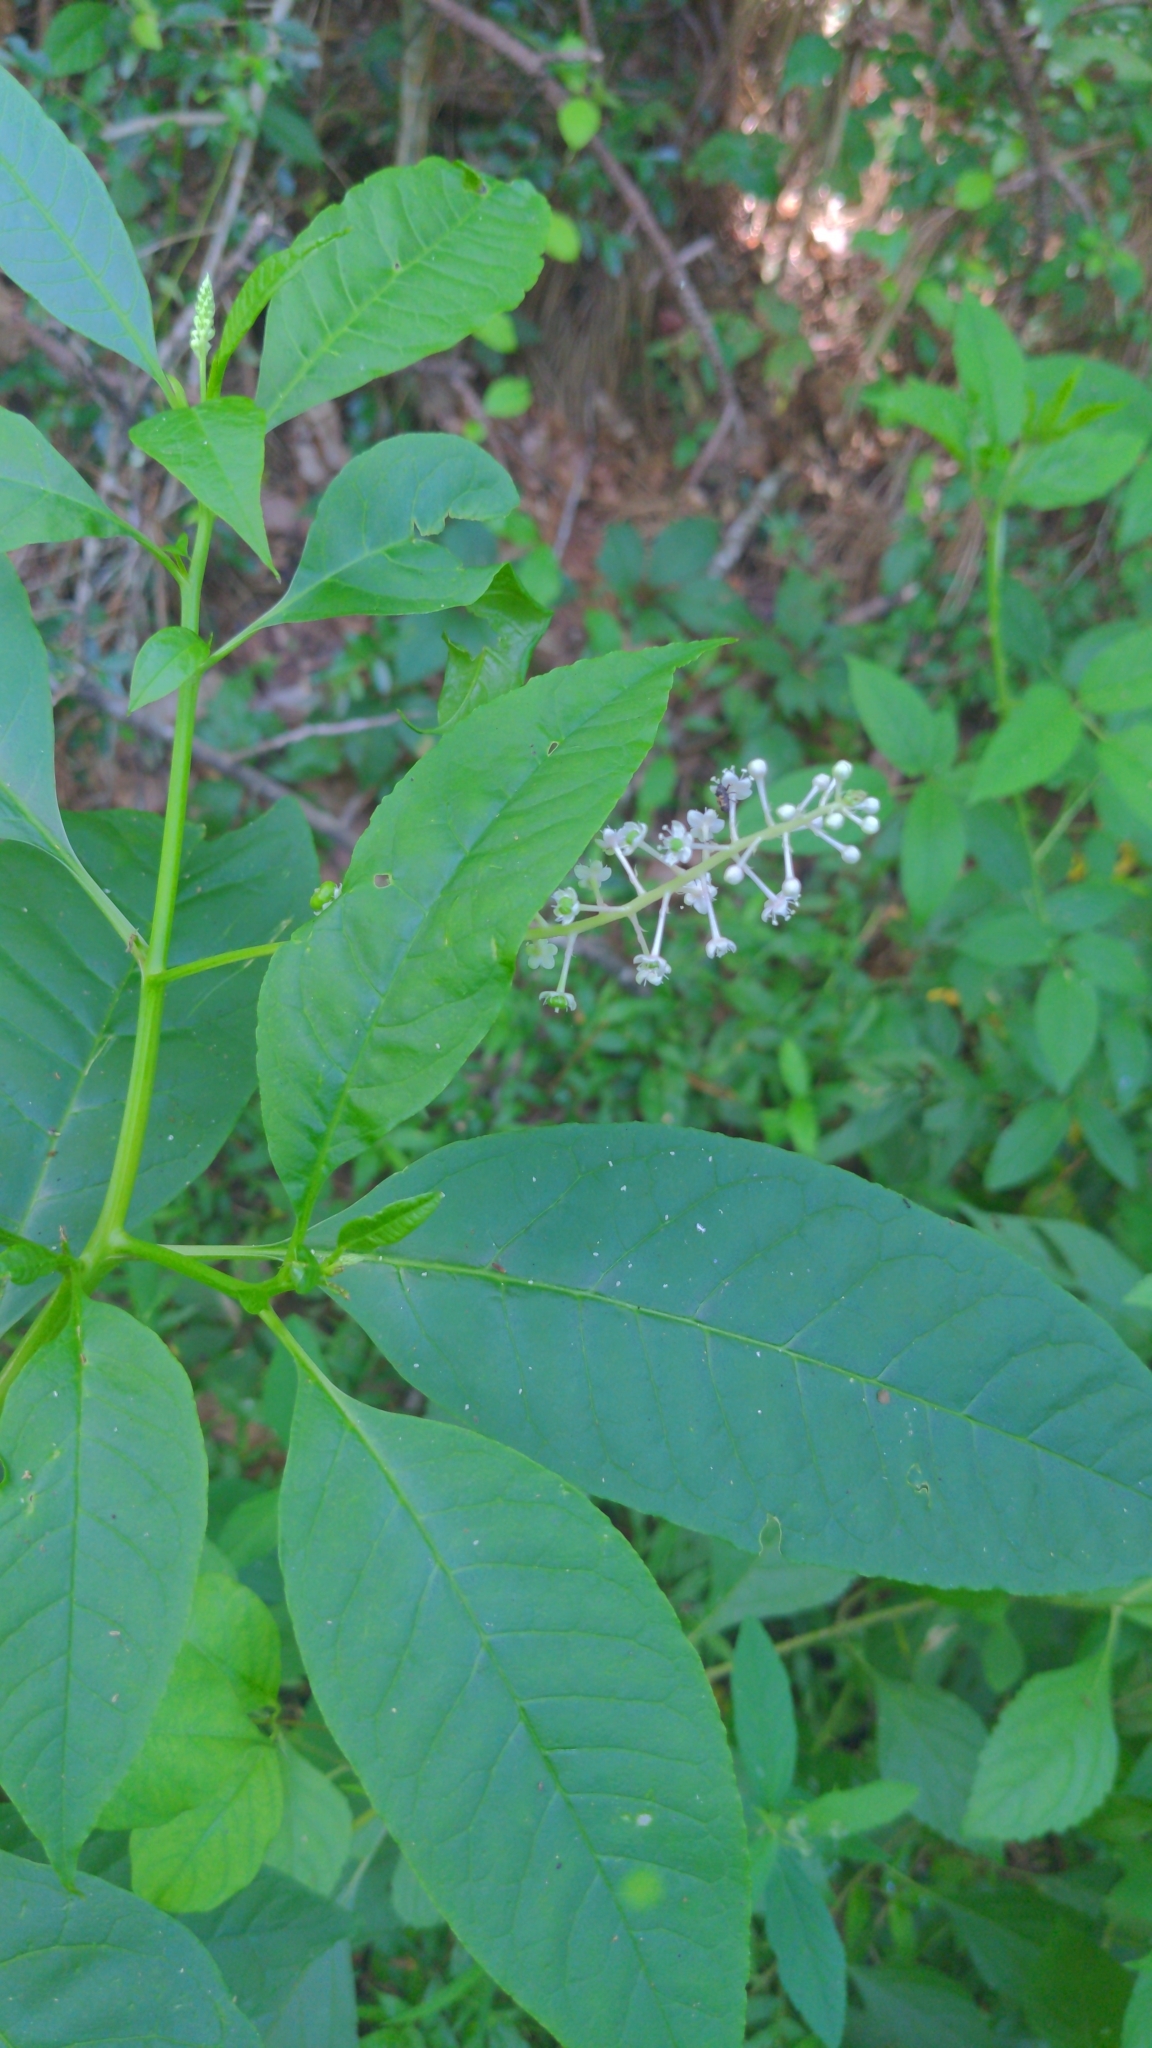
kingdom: Plantae
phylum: Tracheophyta
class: Magnoliopsida
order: Caryophyllales
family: Phytolaccaceae
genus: Phytolacca
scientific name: Phytolacca americana
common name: American pokeweed
